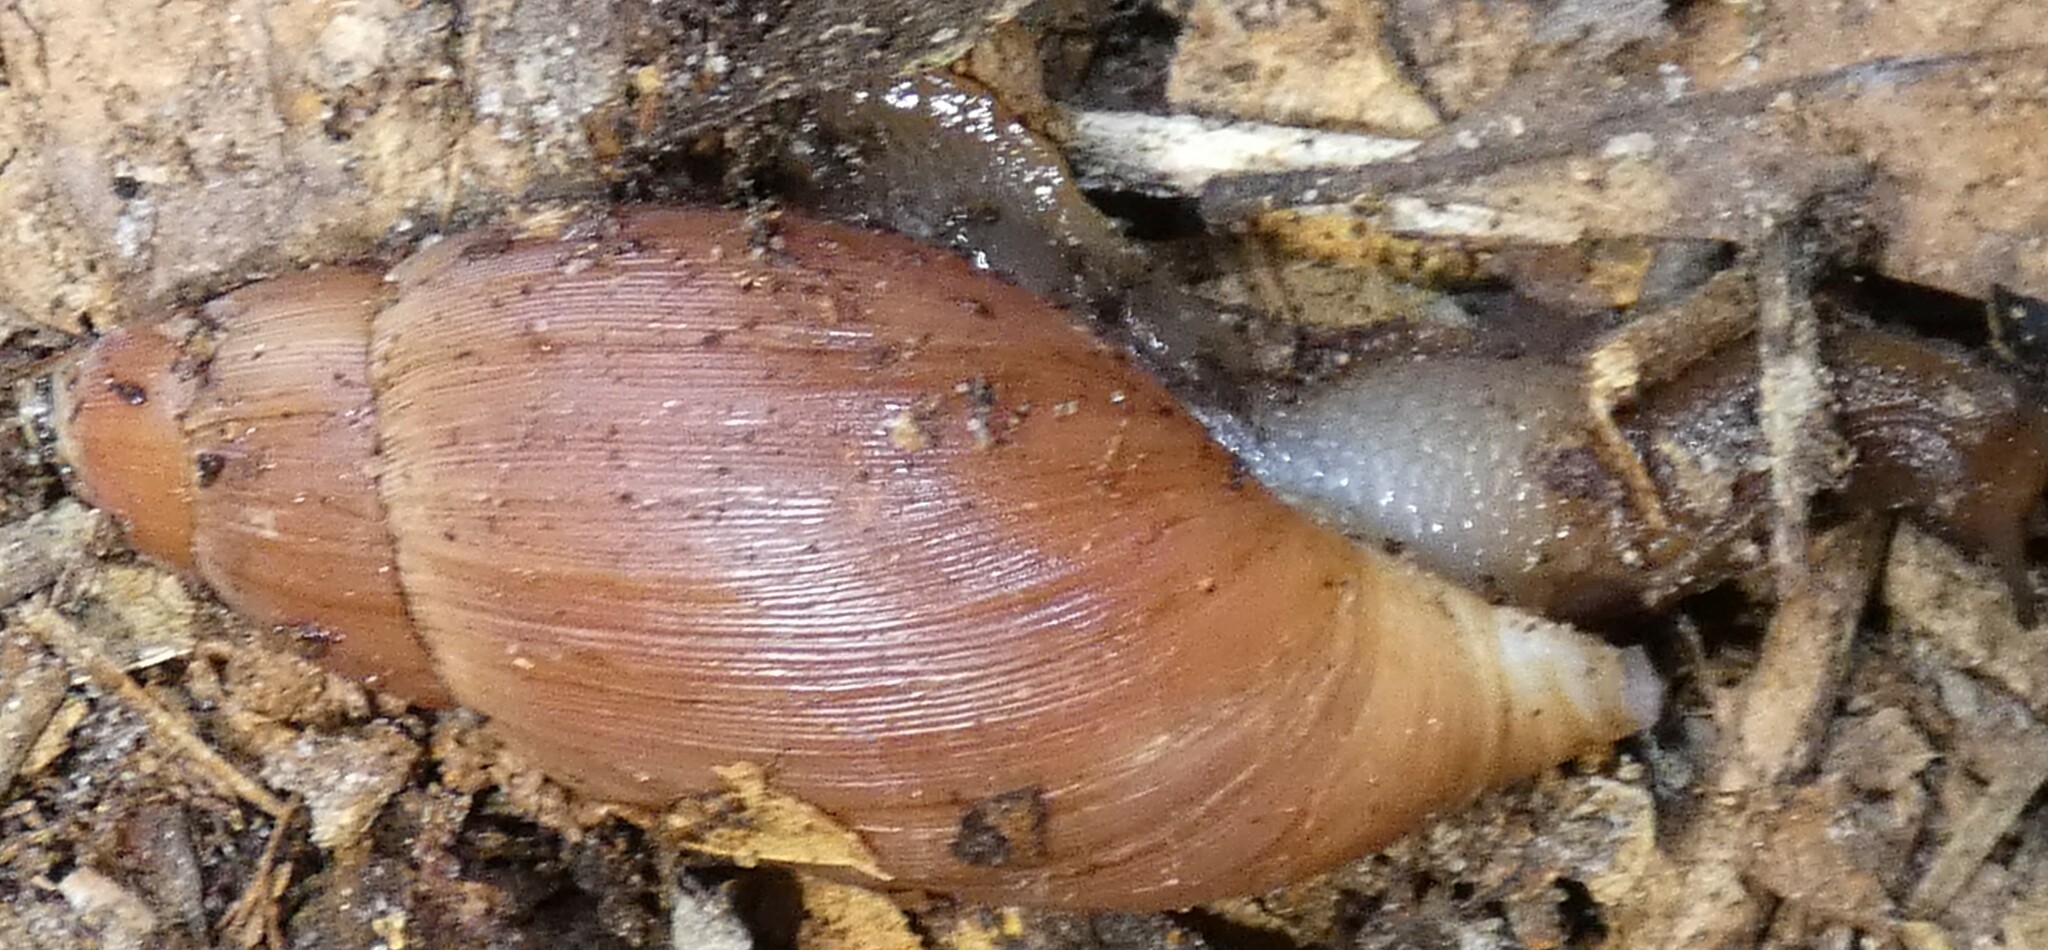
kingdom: Animalia
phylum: Mollusca
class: Gastropoda
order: Stylommatophora
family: Spiraxidae
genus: Euglandina
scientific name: Euglandina rosea
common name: Rosy wolfsnail
